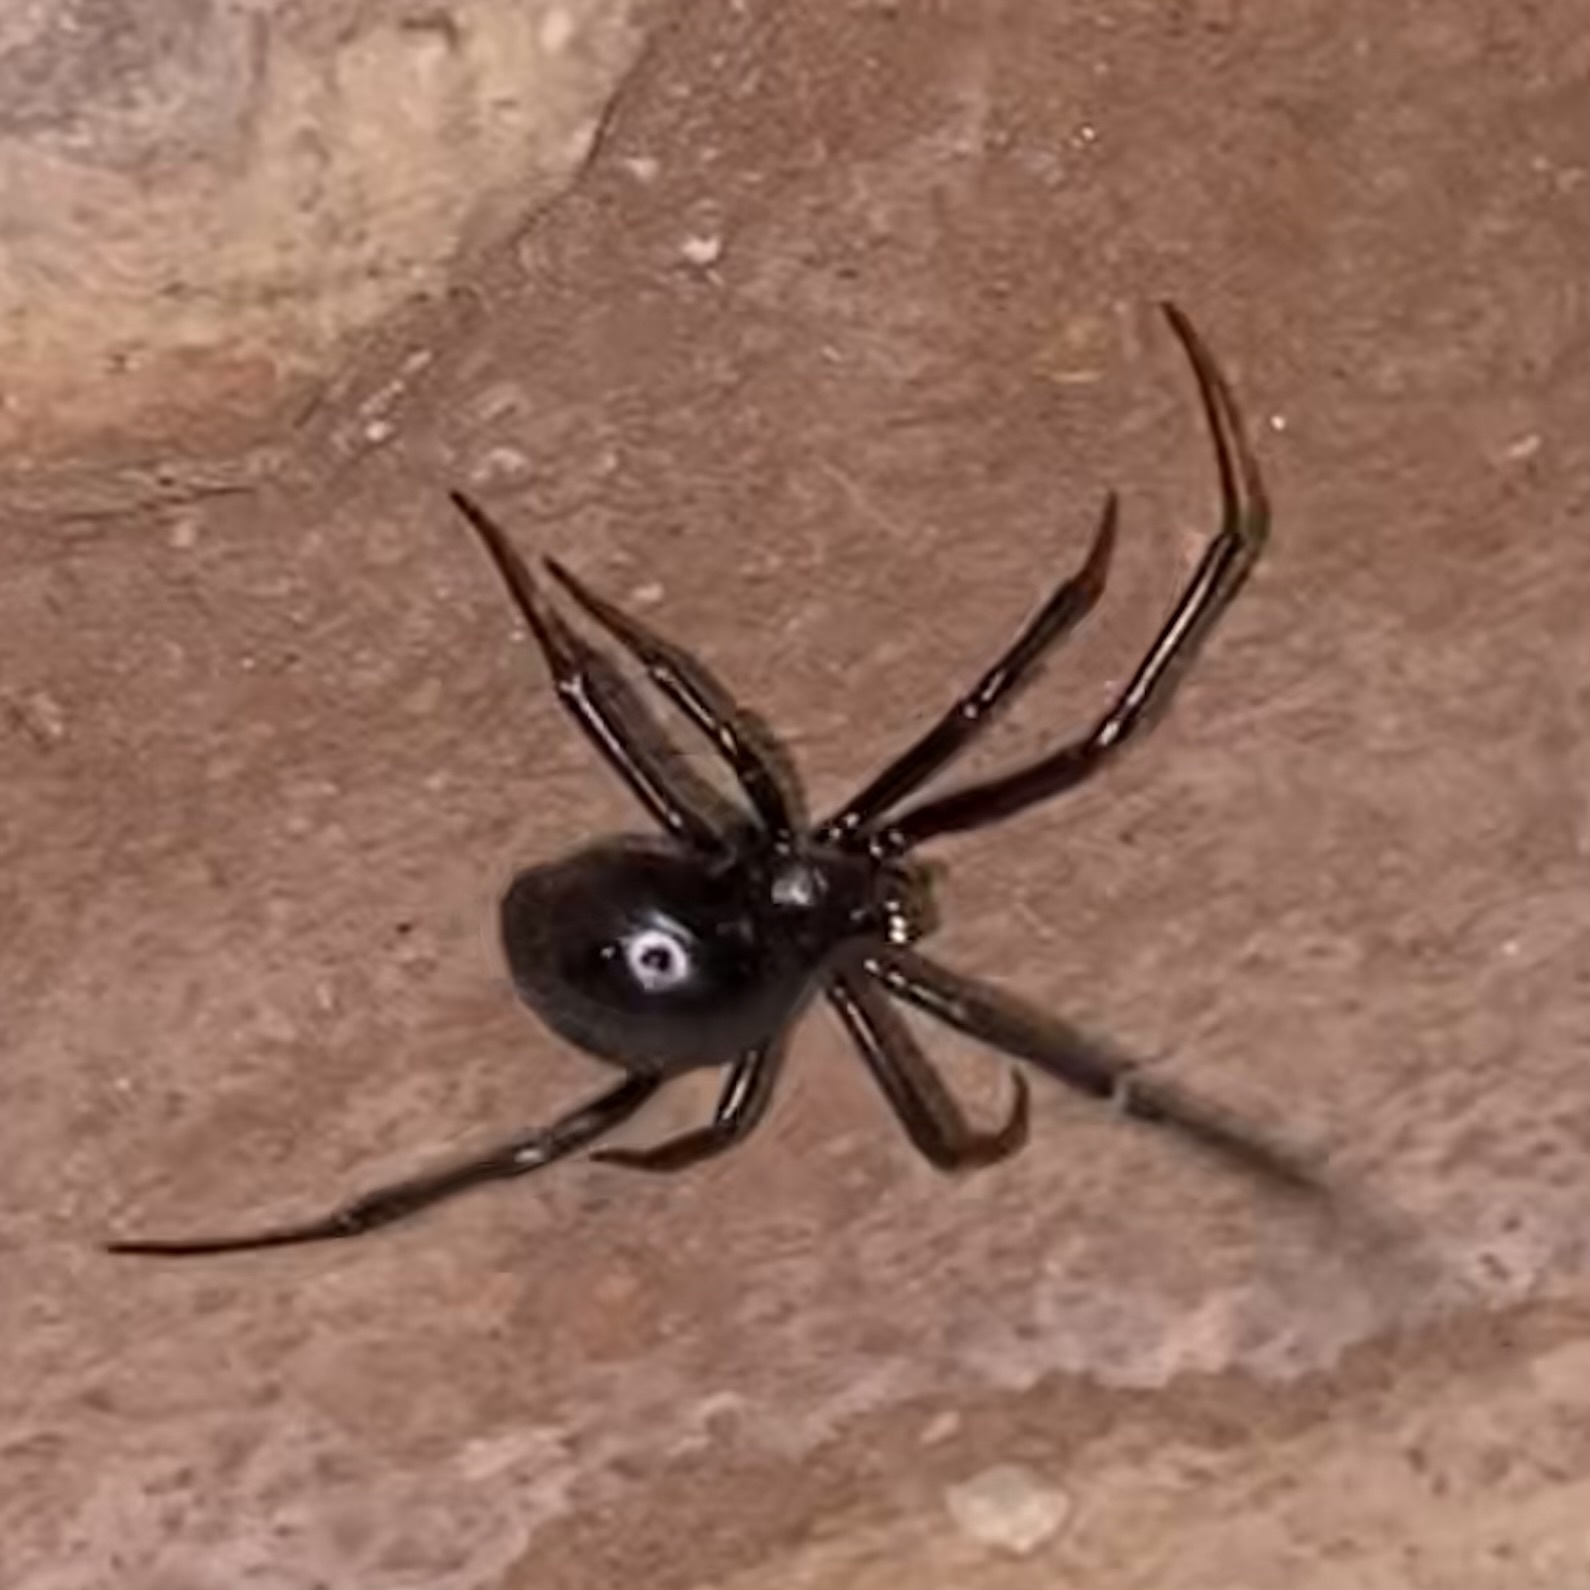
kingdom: Animalia
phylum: Arthropoda
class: Arachnida
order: Araneae
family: Theridiidae
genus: Latrodectus
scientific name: Latrodectus hesperus
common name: Western black widow
